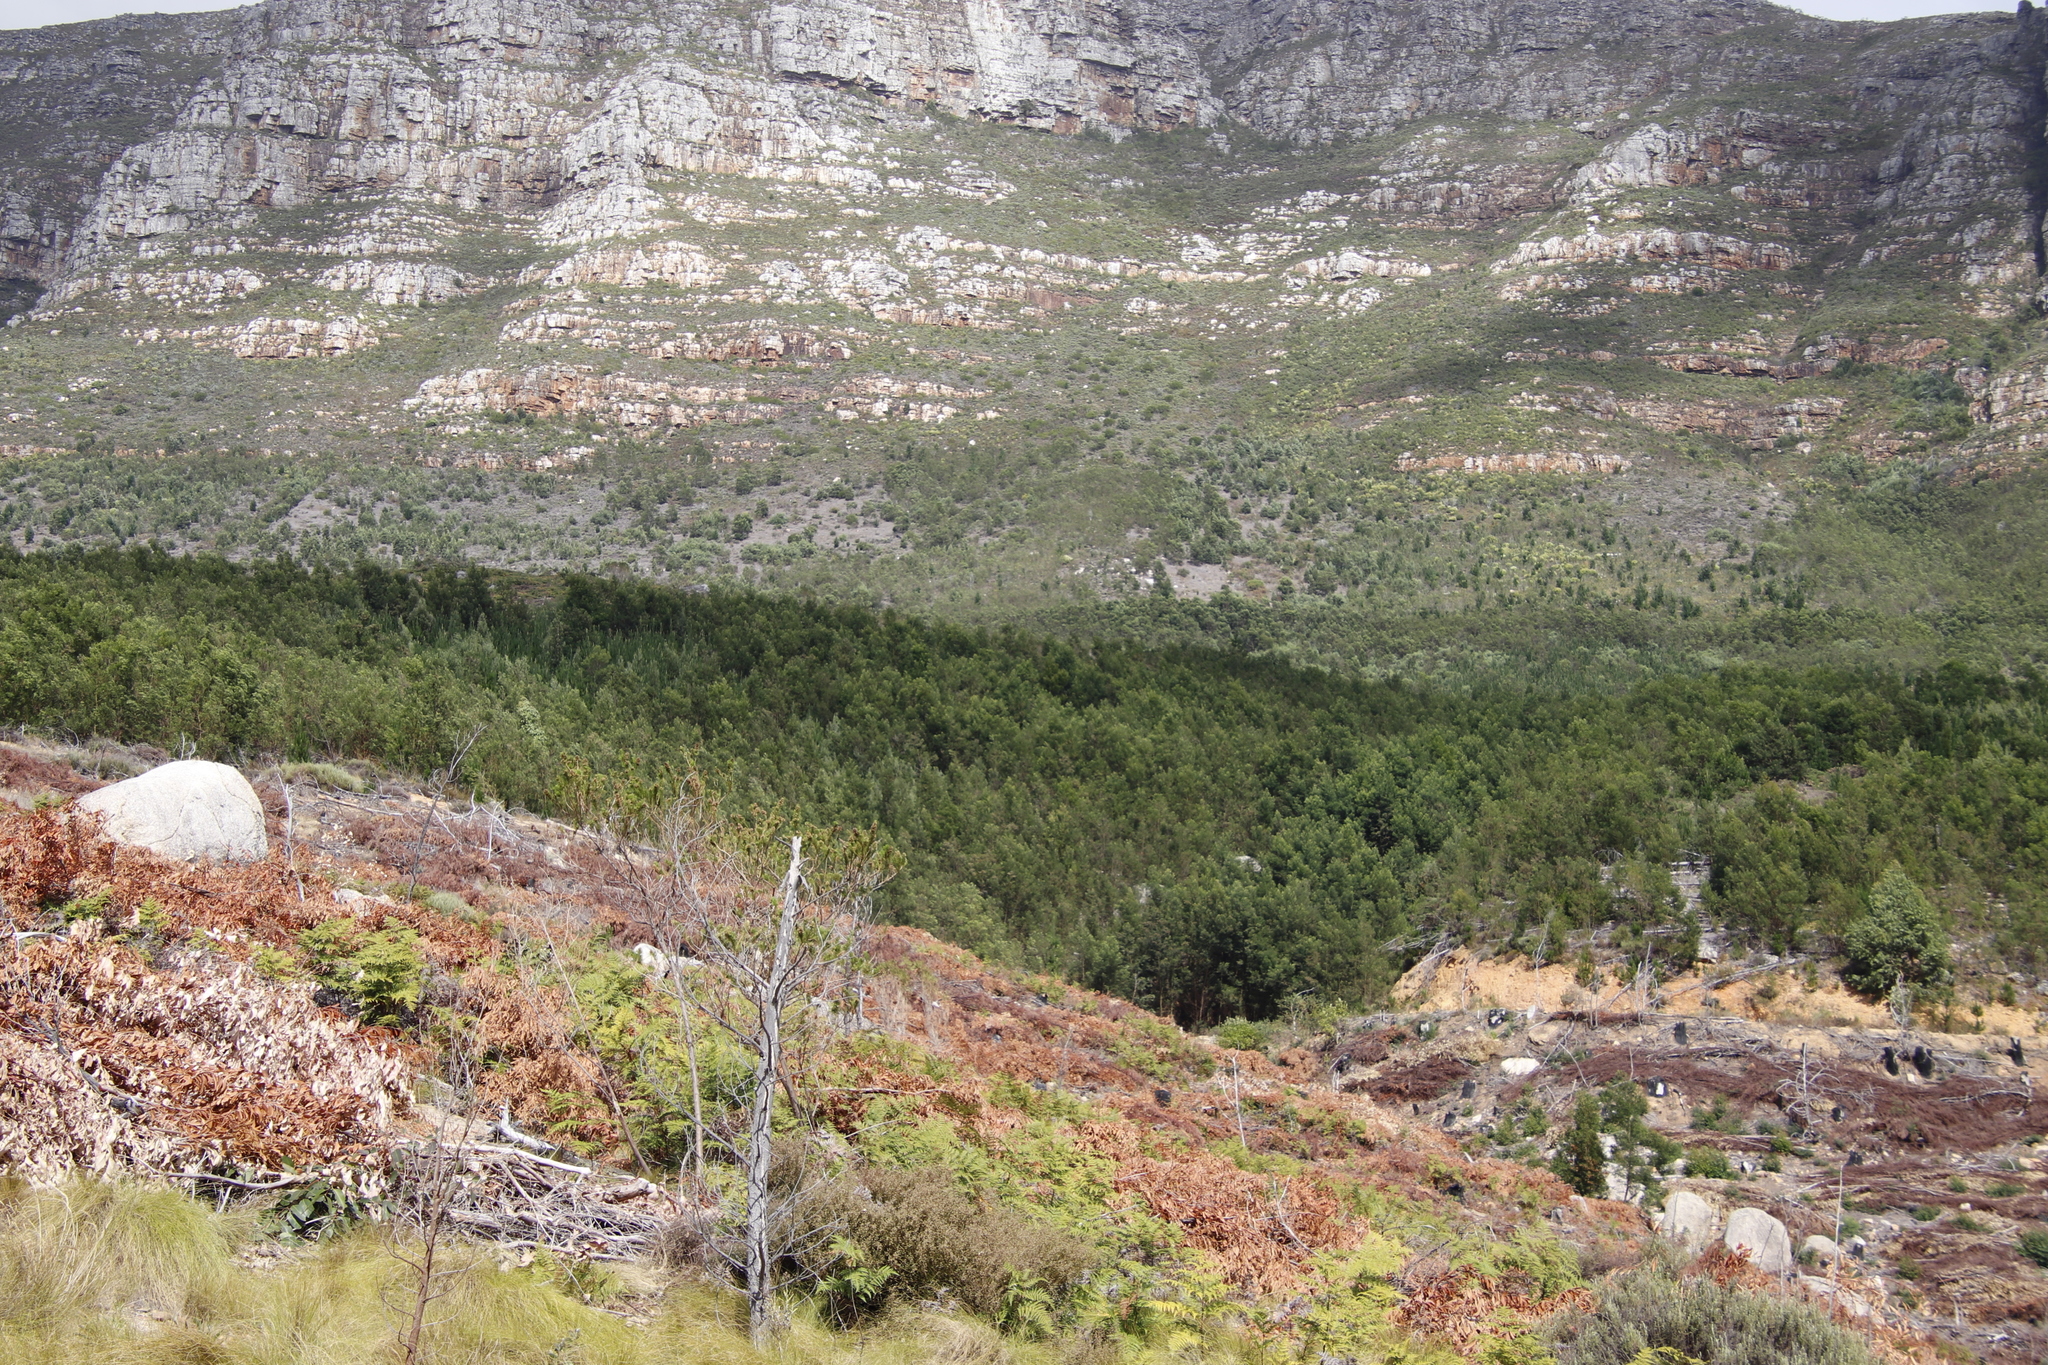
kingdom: Plantae
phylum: Tracheophyta
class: Magnoliopsida
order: Fabales
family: Fabaceae
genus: Acacia
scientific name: Acacia melanoxylon
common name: Blackwood
